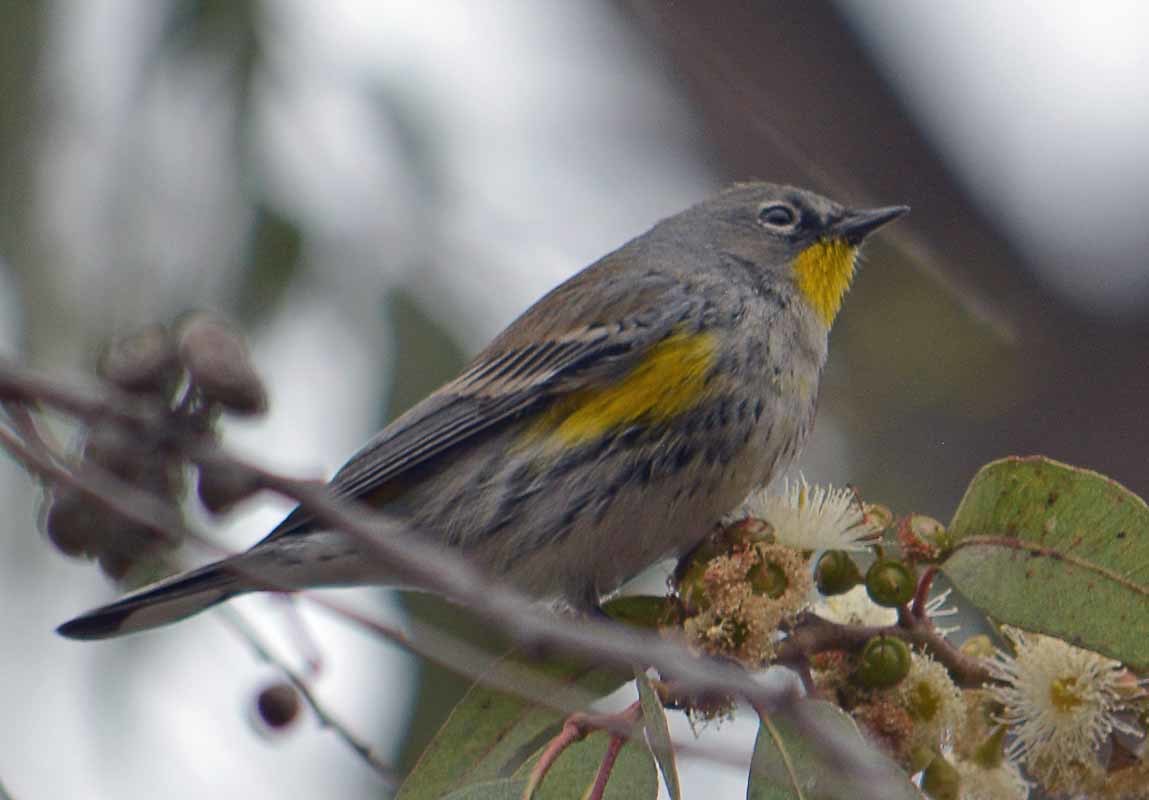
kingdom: Animalia
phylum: Chordata
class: Aves
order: Passeriformes
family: Parulidae
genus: Setophaga
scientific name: Setophaga coronata
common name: Myrtle warbler
